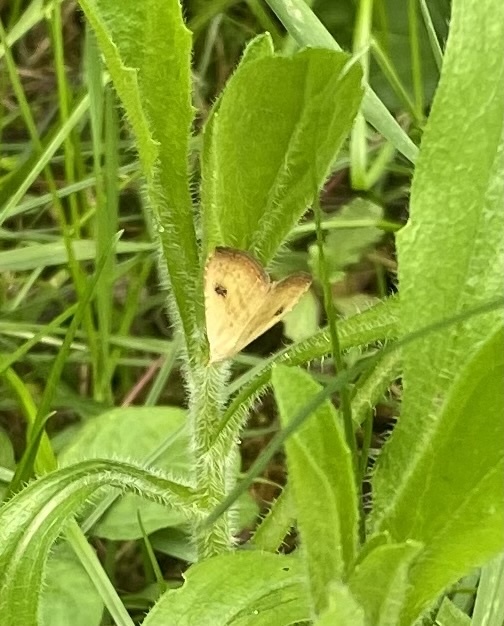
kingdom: Animalia
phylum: Arthropoda
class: Insecta
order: Lepidoptera
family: Erebidae
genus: Rivula
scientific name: Rivula sericealis
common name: Straw dot
